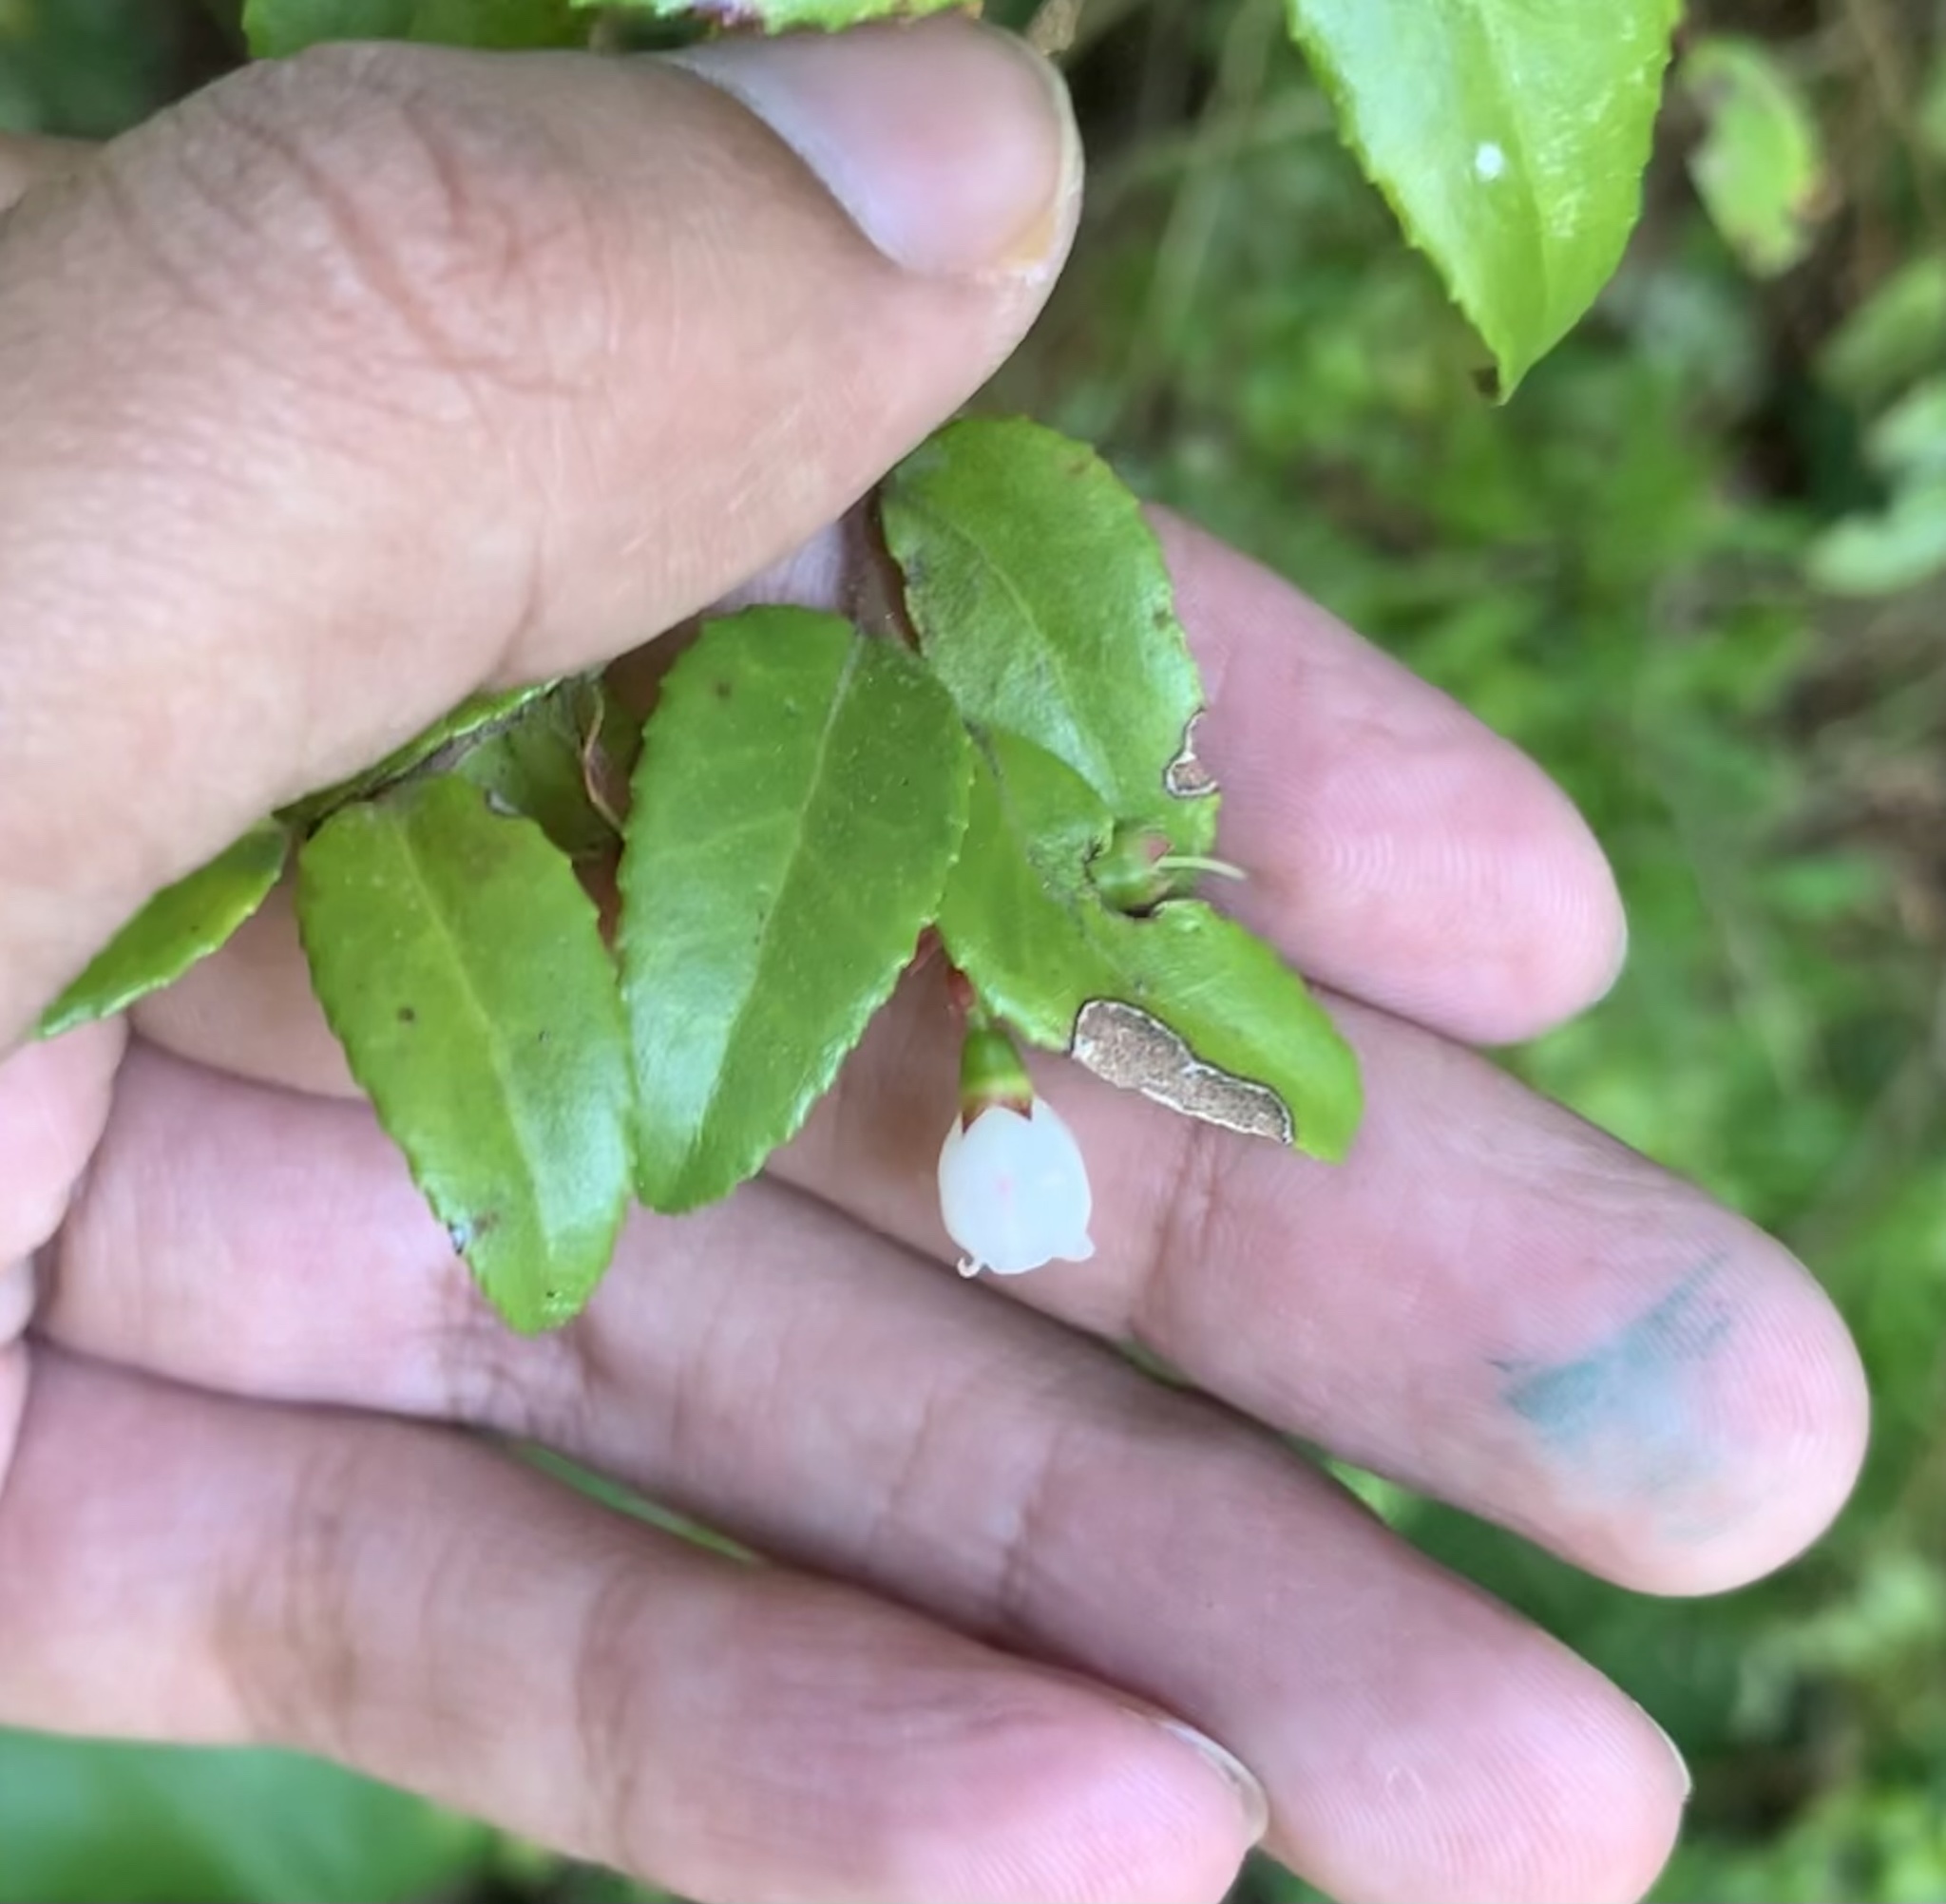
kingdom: Plantae
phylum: Tracheophyta
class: Magnoliopsida
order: Ericales
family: Ericaceae
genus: Vaccinium
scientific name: Vaccinium ovatum
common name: California-huckleberry
